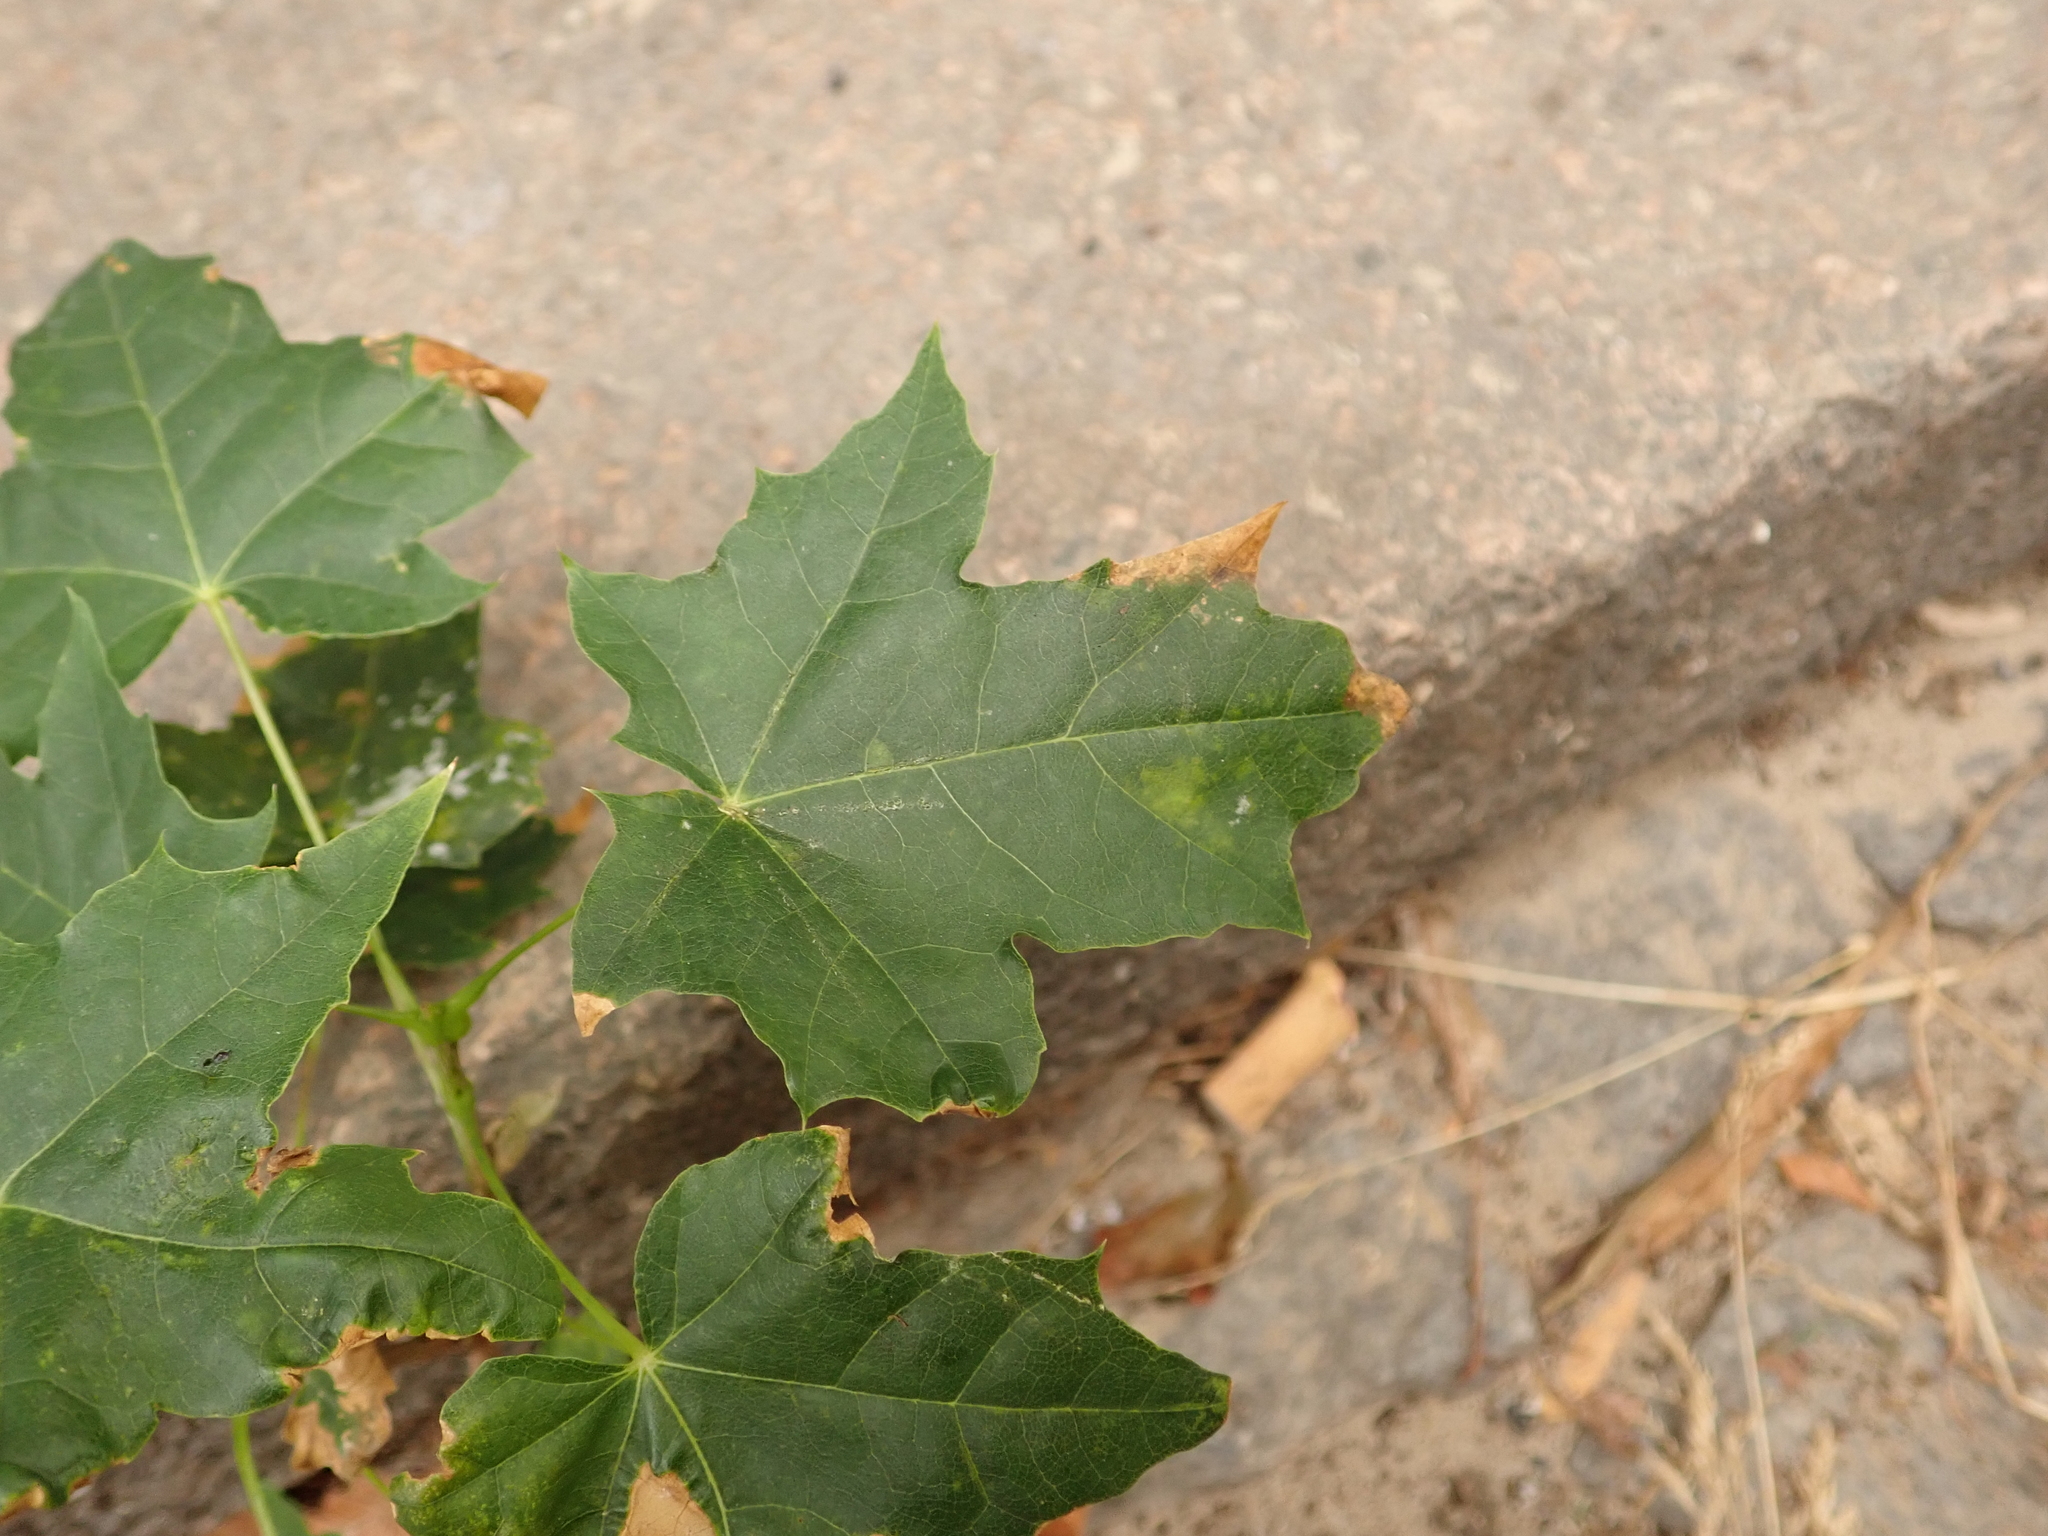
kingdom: Plantae
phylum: Tracheophyta
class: Magnoliopsida
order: Sapindales
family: Sapindaceae
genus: Acer
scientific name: Acer platanoides
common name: Norway maple
